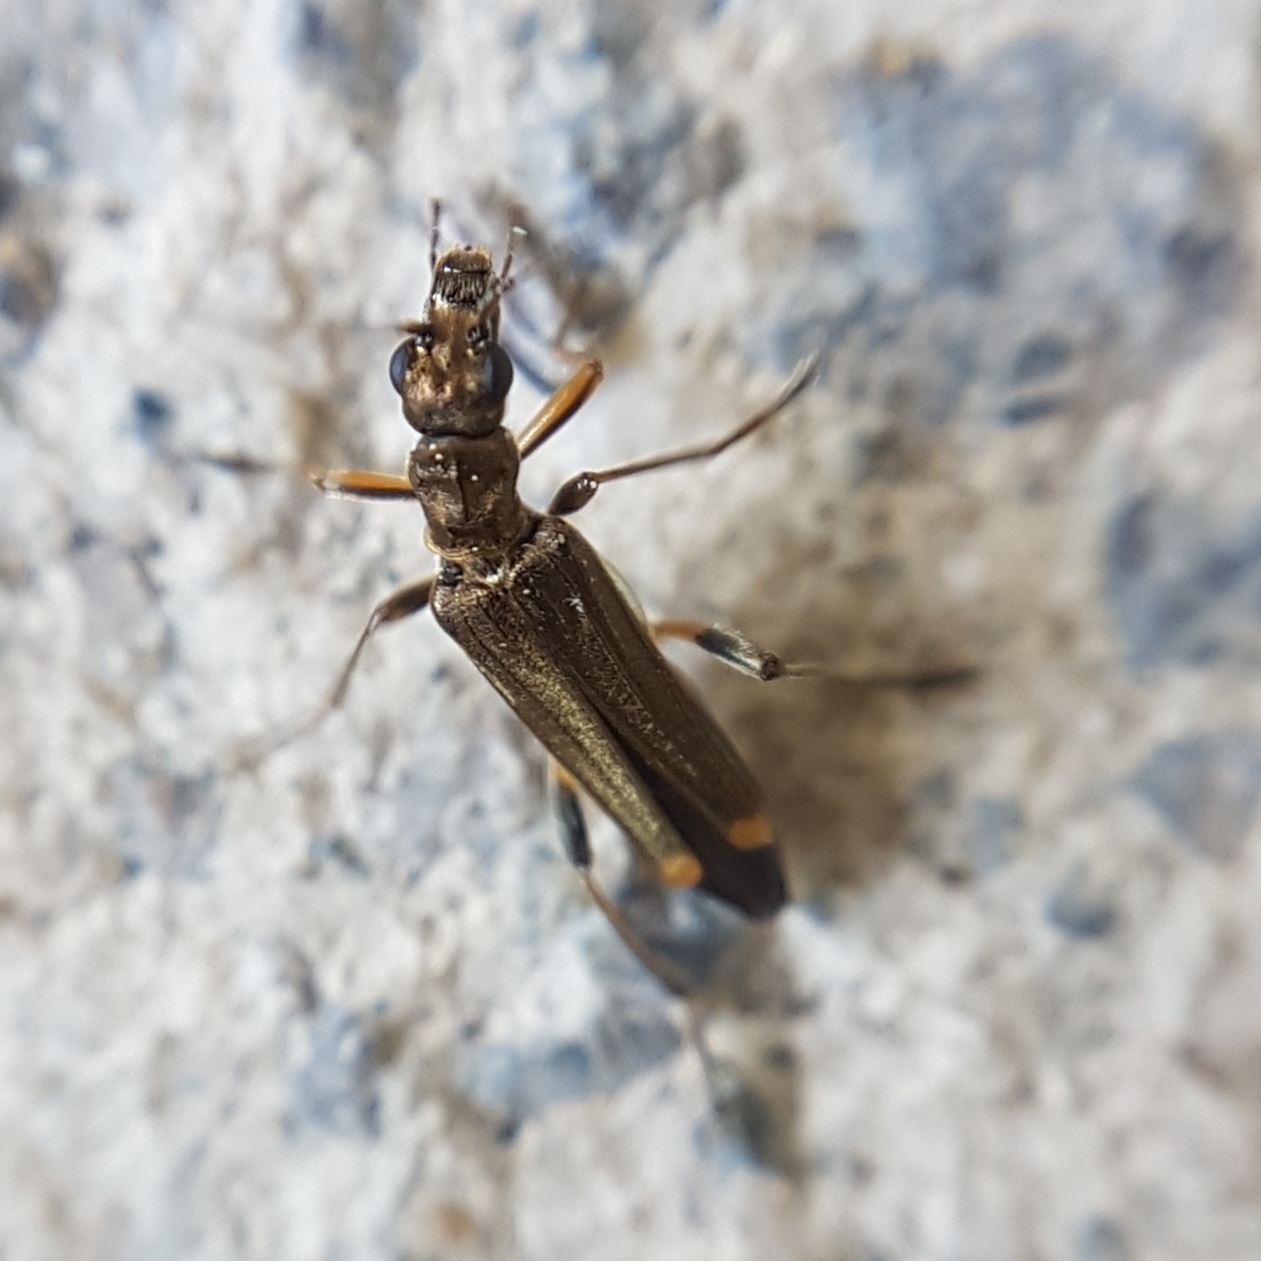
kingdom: Animalia
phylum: Arthropoda
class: Insecta
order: Coleoptera
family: Oedemeridae
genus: Oedemera
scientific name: Oedemera barbara
